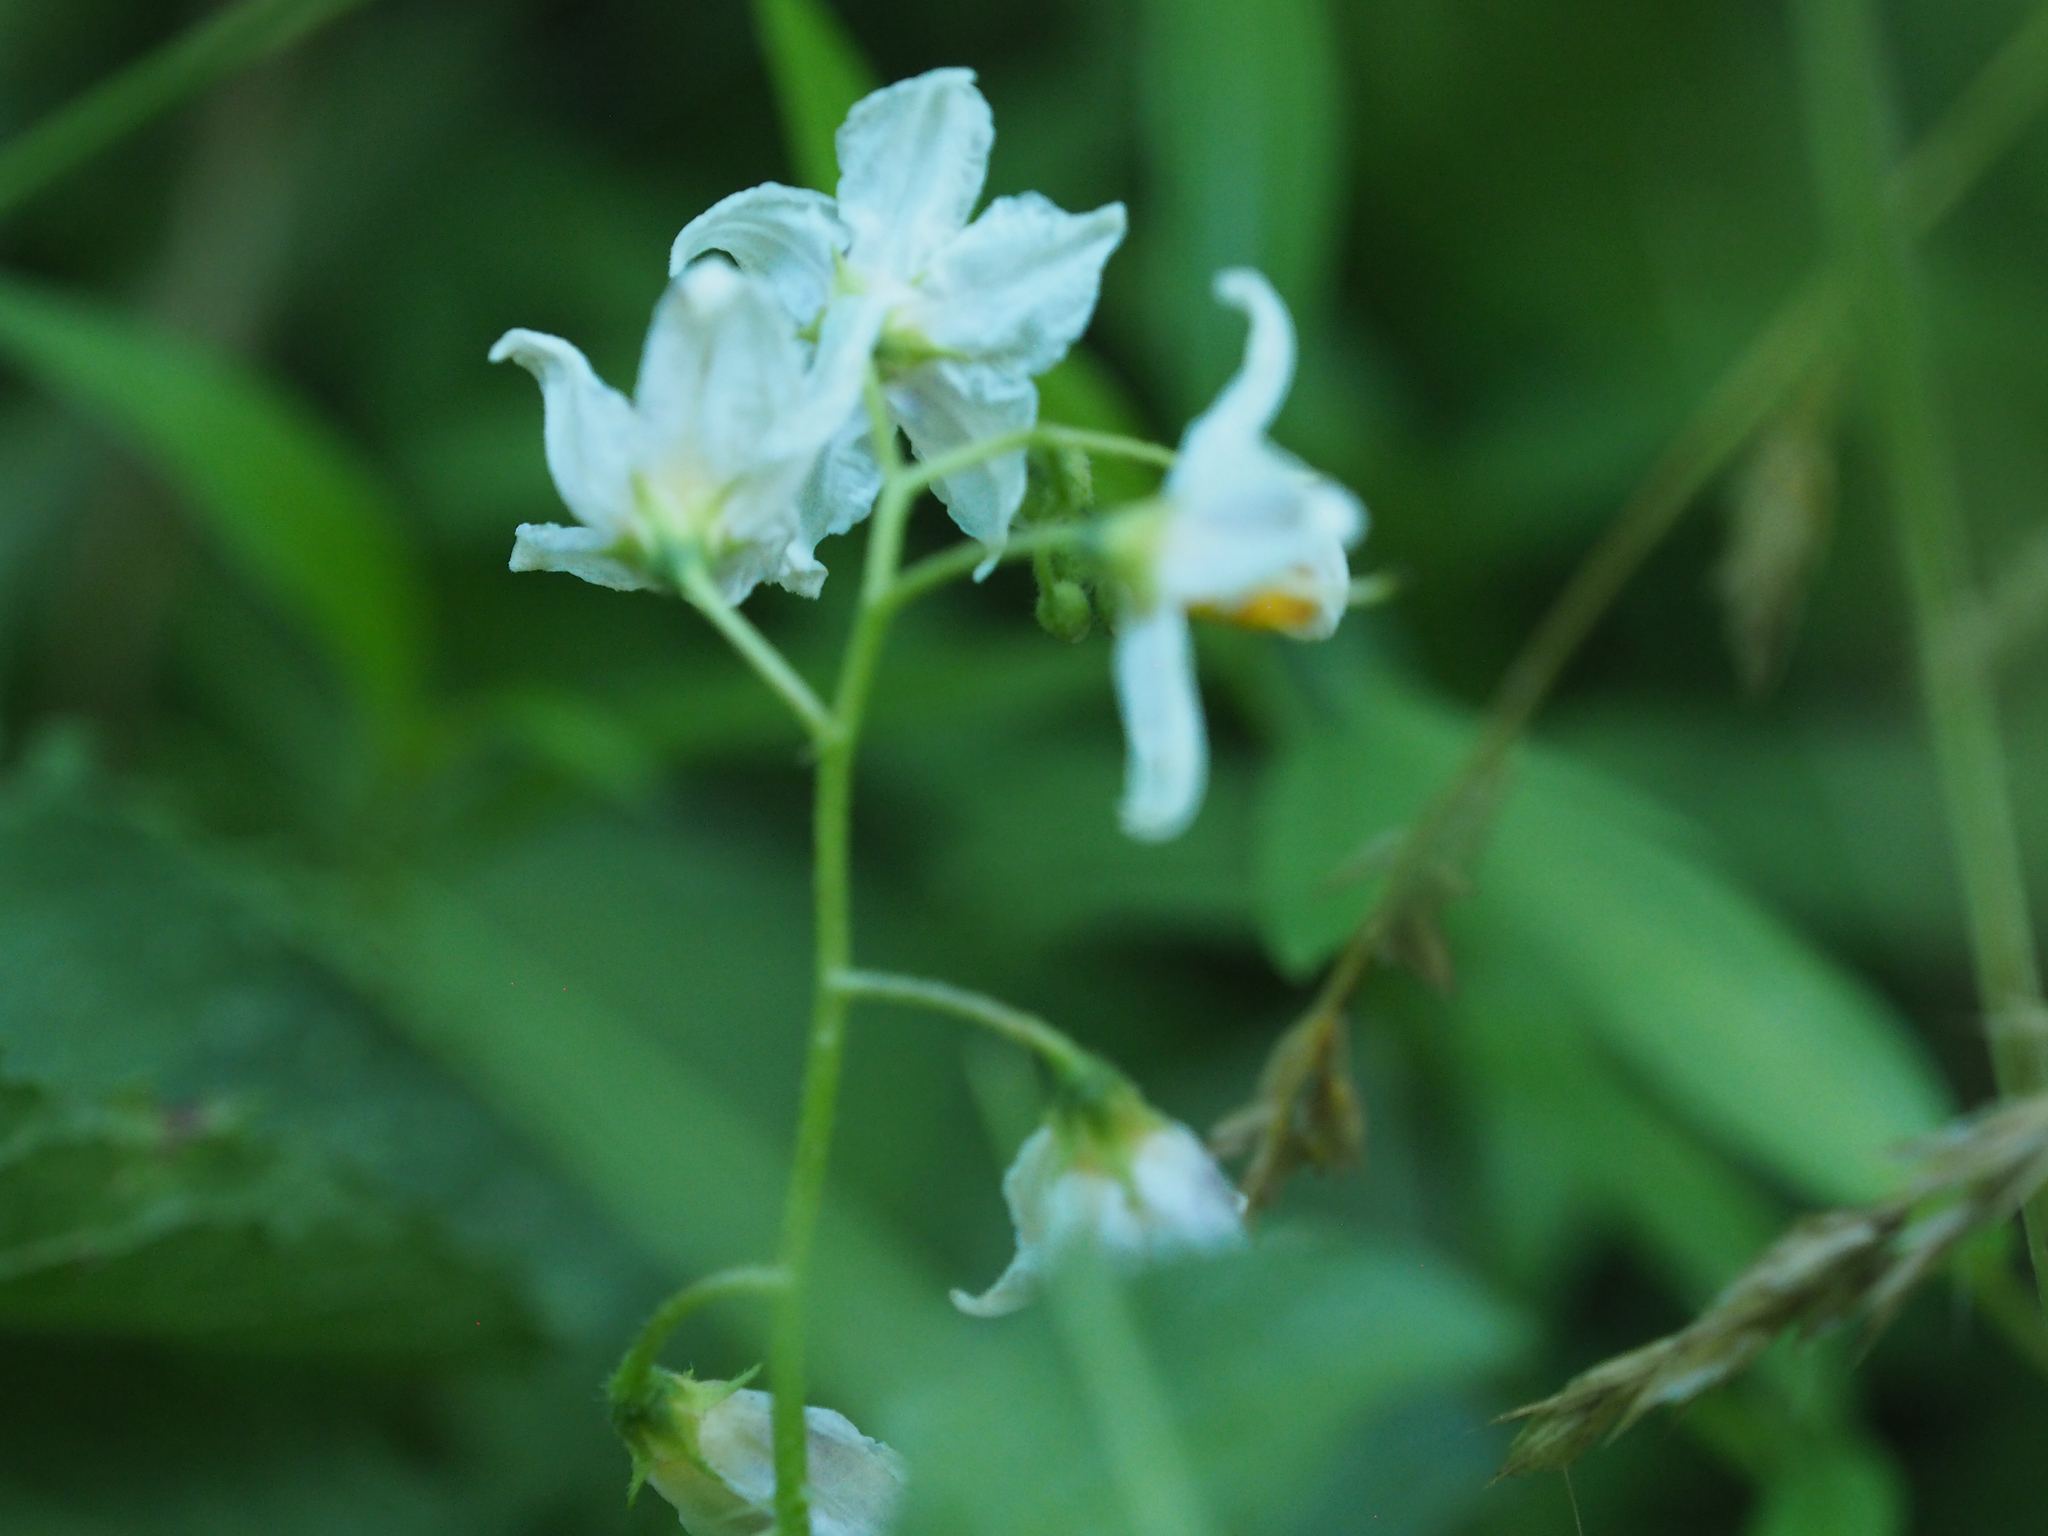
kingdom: Plantae
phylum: Tracheophyta
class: Magnoliopsida
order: Solanales
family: Solanaceae
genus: Solanum
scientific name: Solanum carolinense
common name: Horse-nettle
